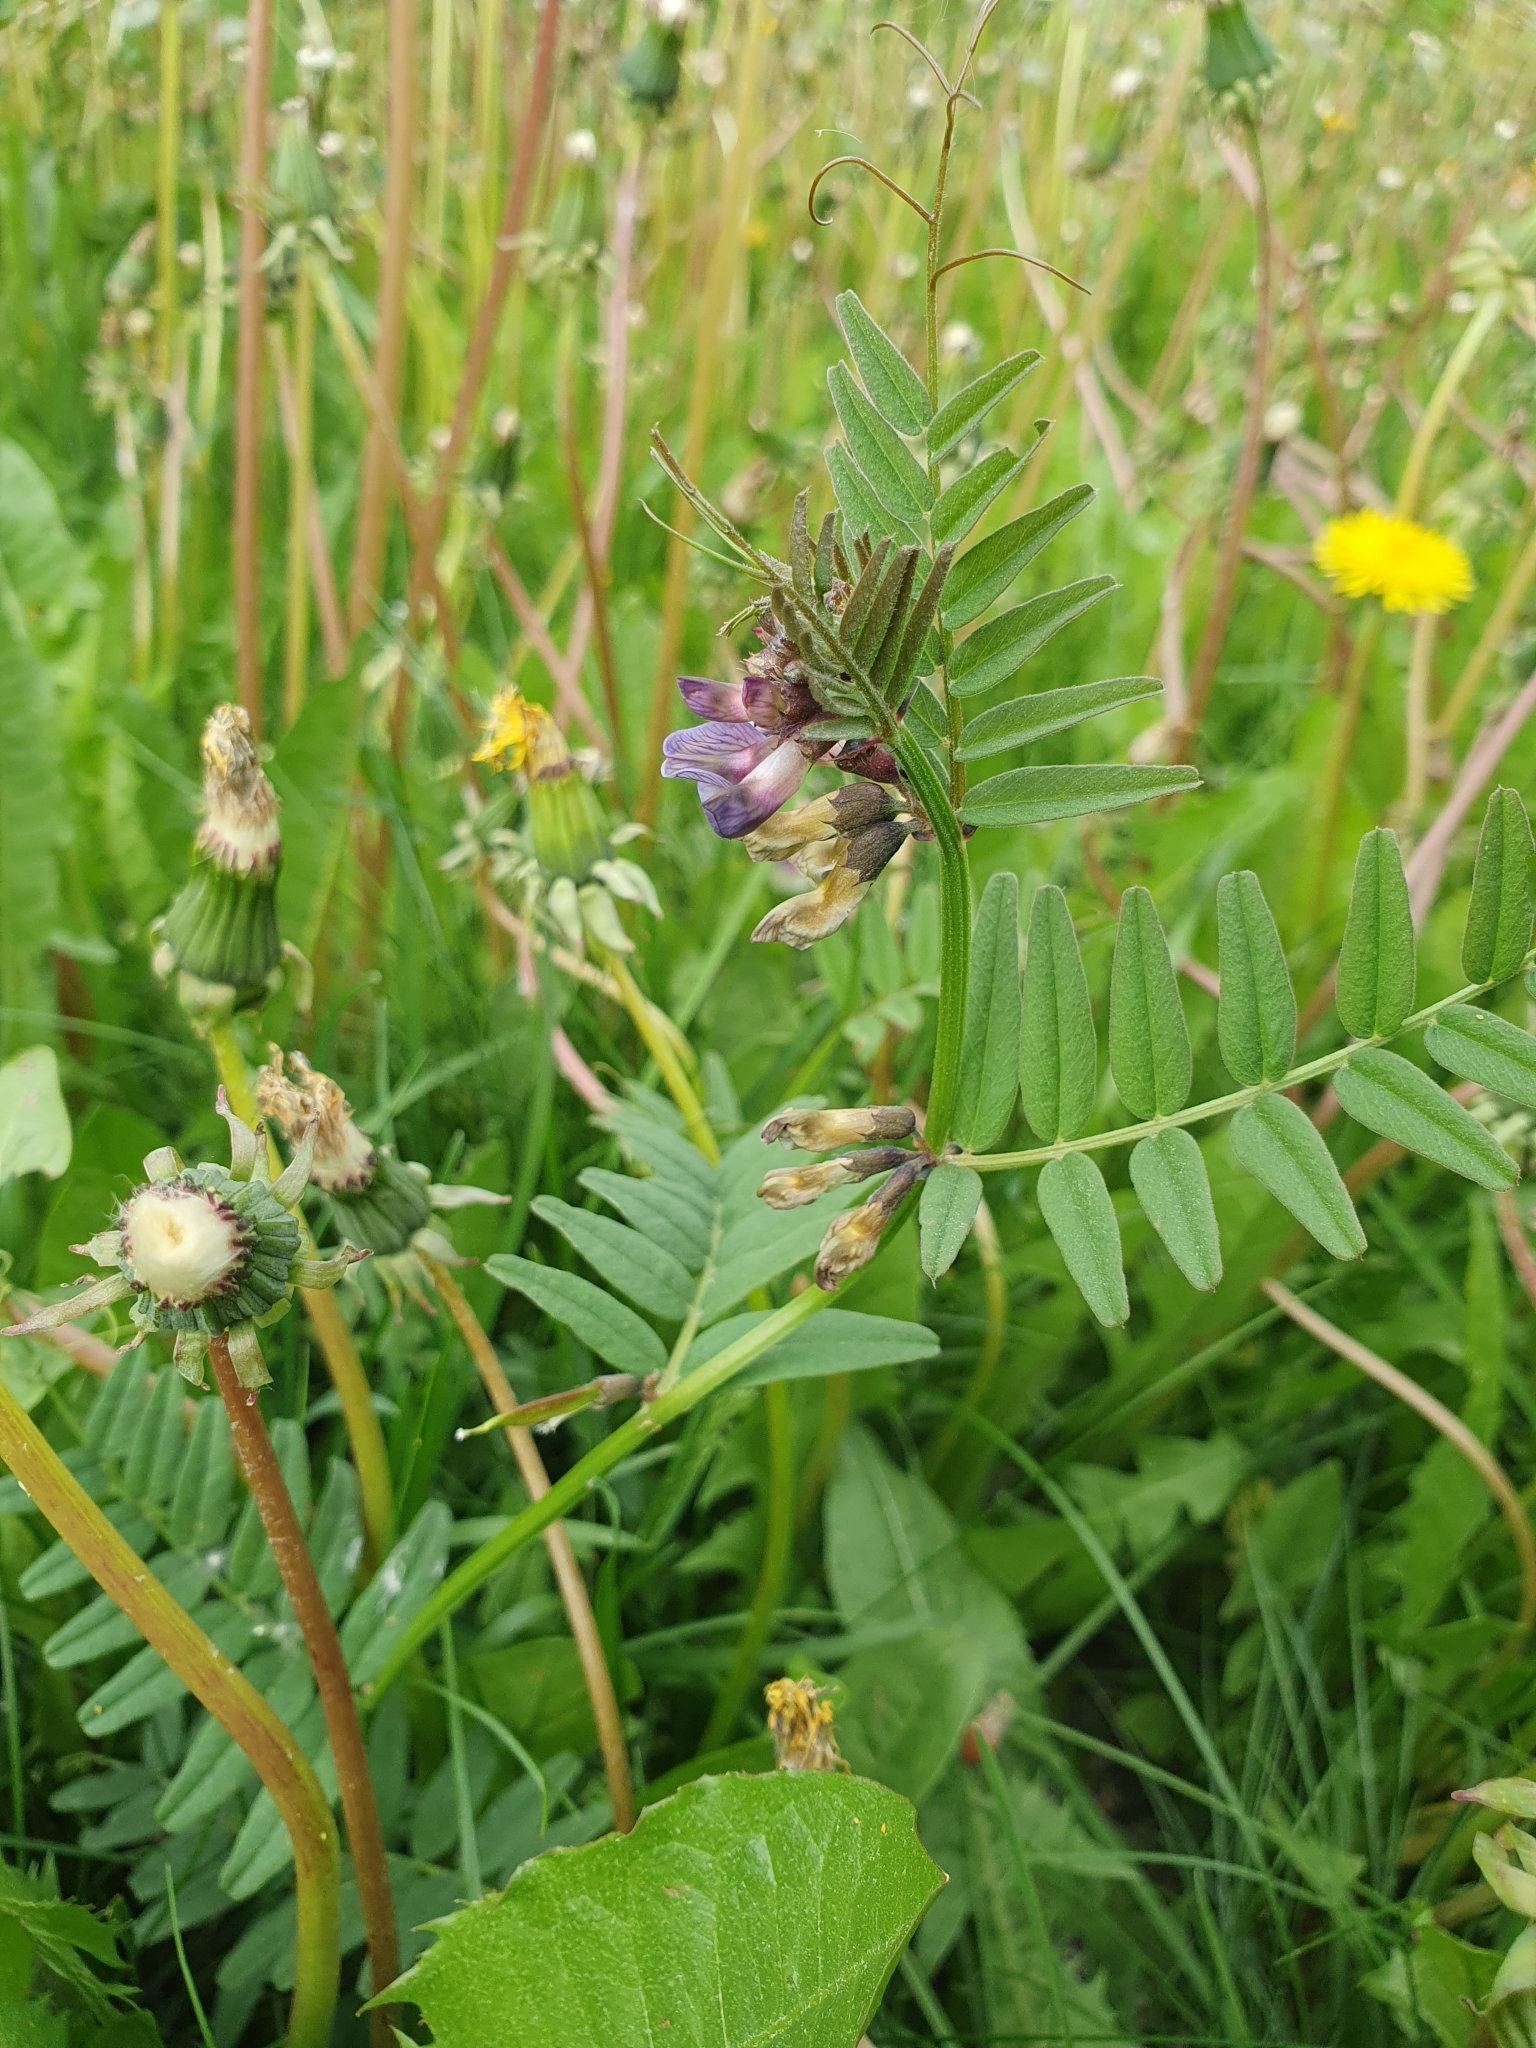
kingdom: Plantae
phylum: Tracheophyta
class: Magnoliopsida
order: Fabales
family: Fabaceae
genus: Vicia
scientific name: Vicia sepium
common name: Bush vetch
